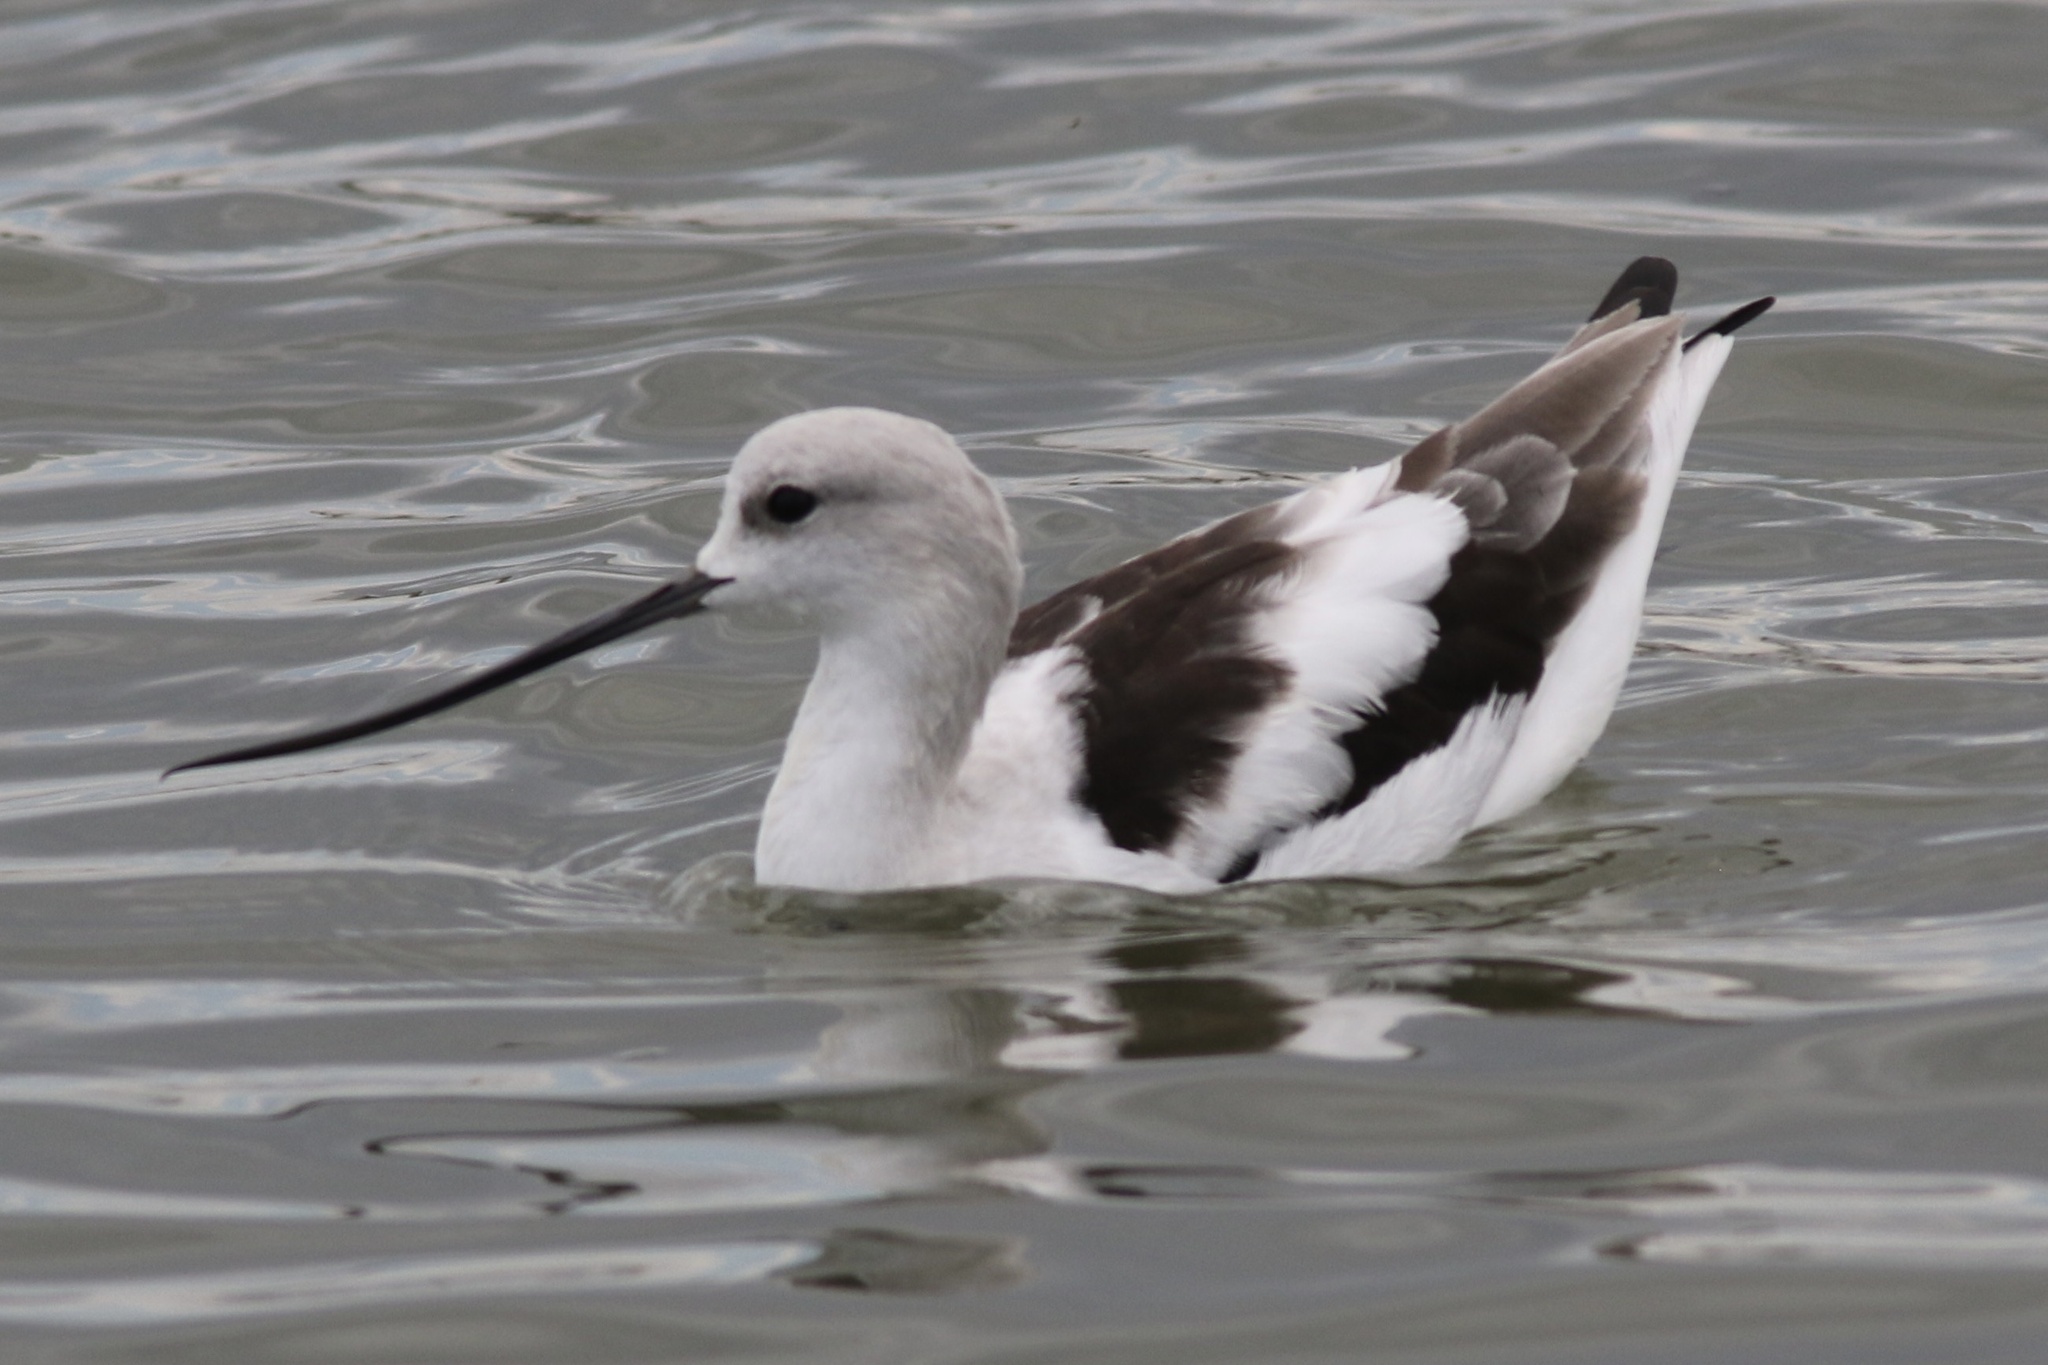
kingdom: Animalia
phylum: Chordata
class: Aves
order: Charadriiformes
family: Recurvirostridae
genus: Recurvirostra
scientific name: Recurvirostra americana
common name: American avocet
